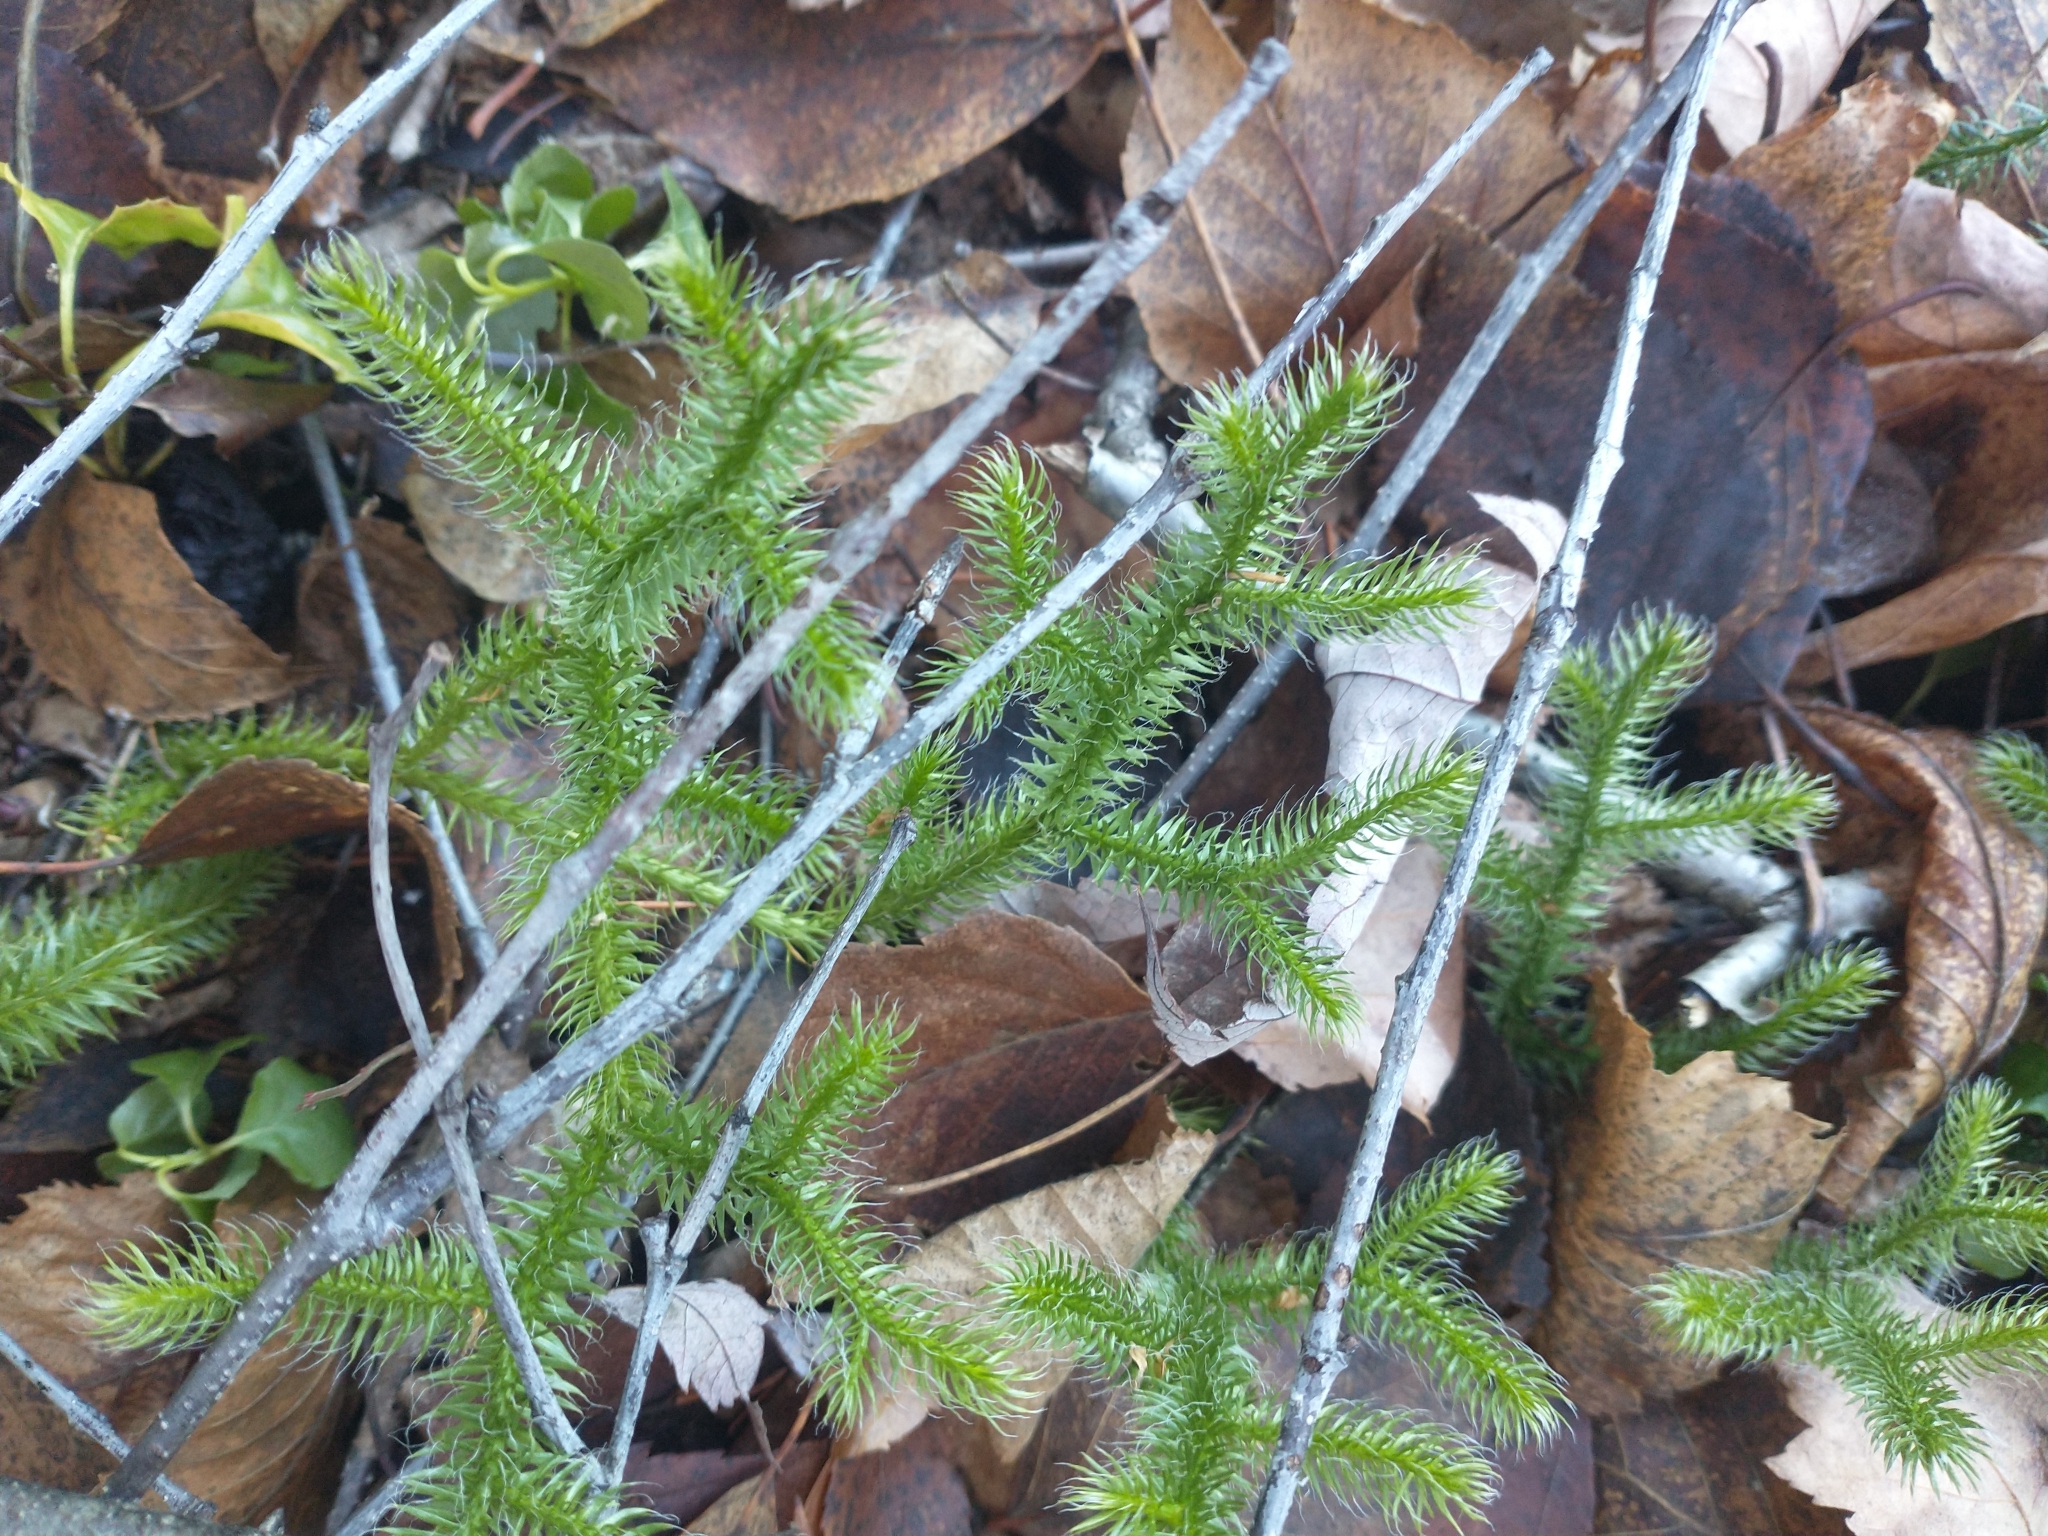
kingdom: Plantae
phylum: Tracheophyta
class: Lycopodiopsida
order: Lycopodiales
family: Lycopodiaceae
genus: Lycopodium
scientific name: Lycopodium clavatum
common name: Stag's-horn clubmoss
